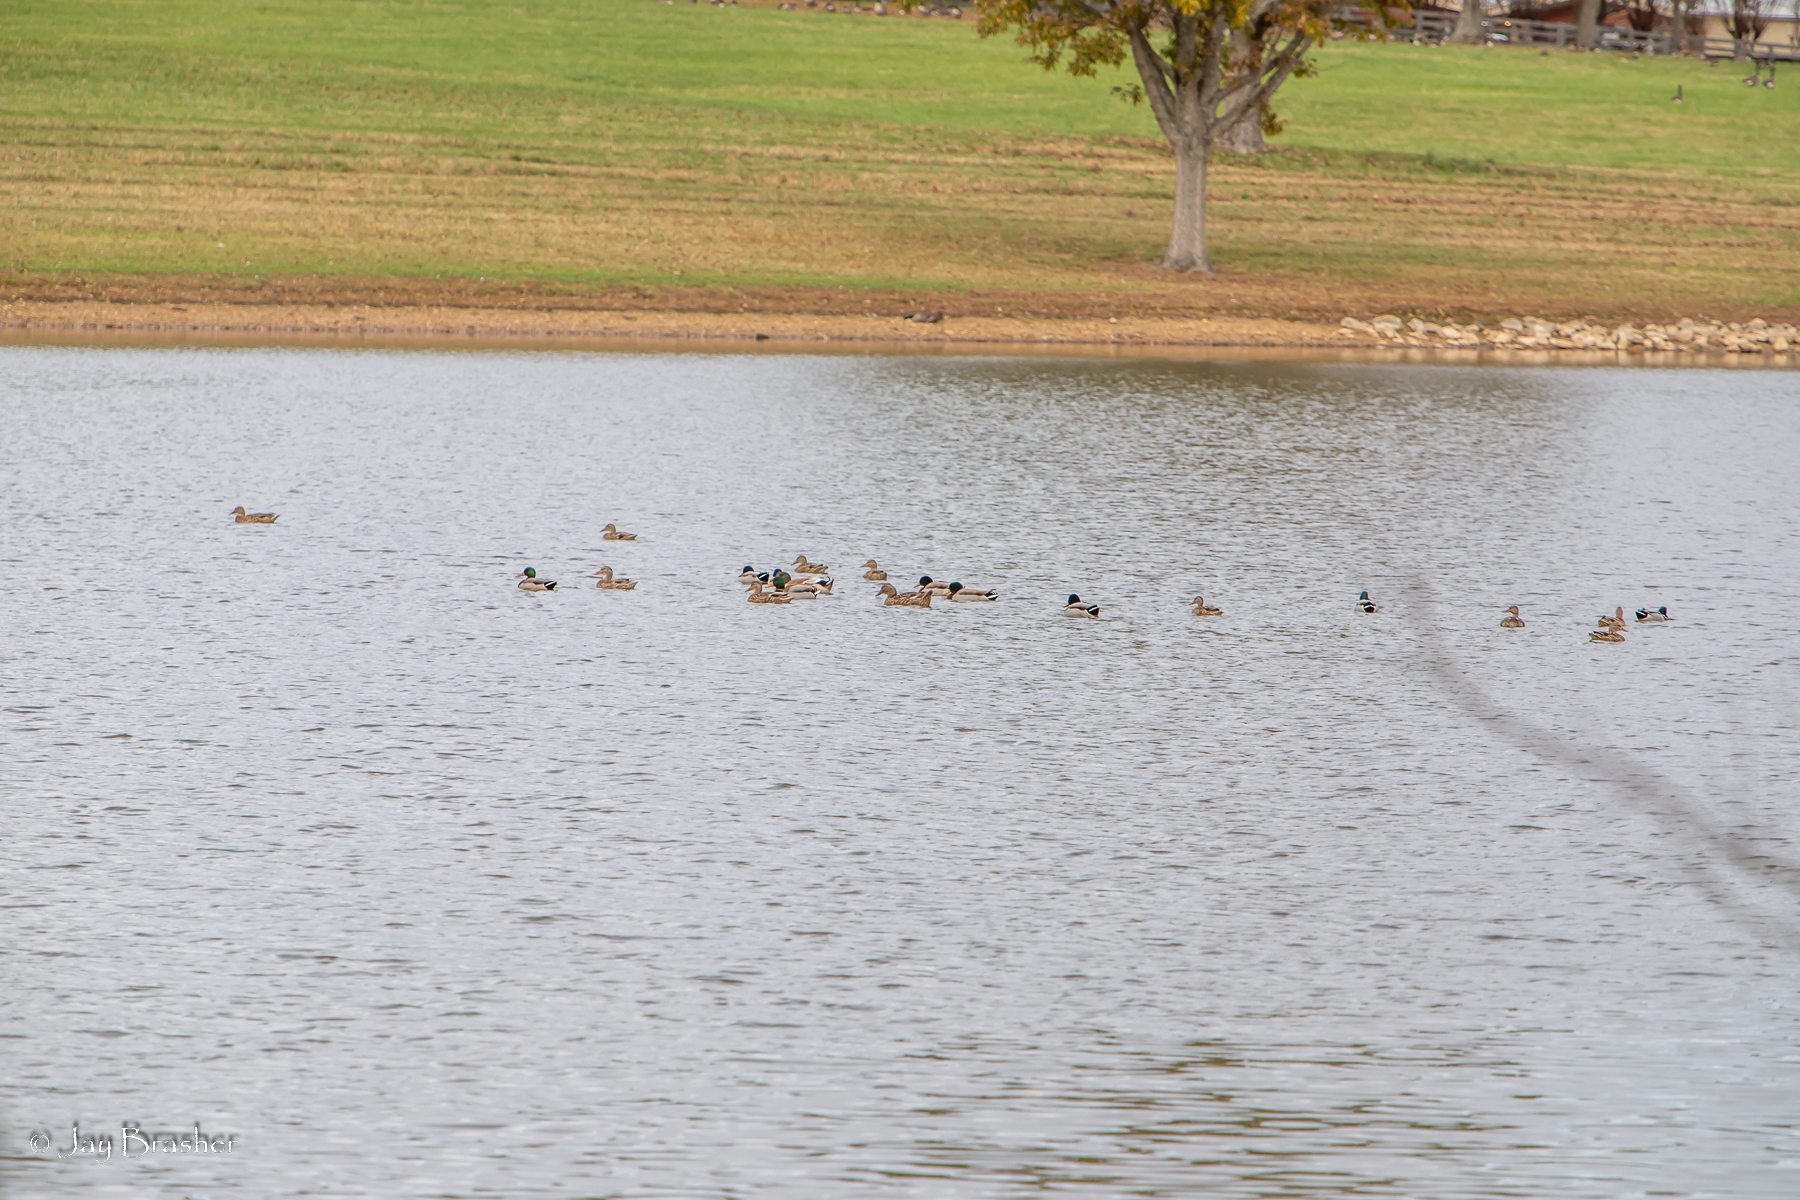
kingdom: Animalia
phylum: Chordata
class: Aves
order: Anseriformes
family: Anatidae
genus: Anas
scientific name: Anas platyrhynchos
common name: Mallard
